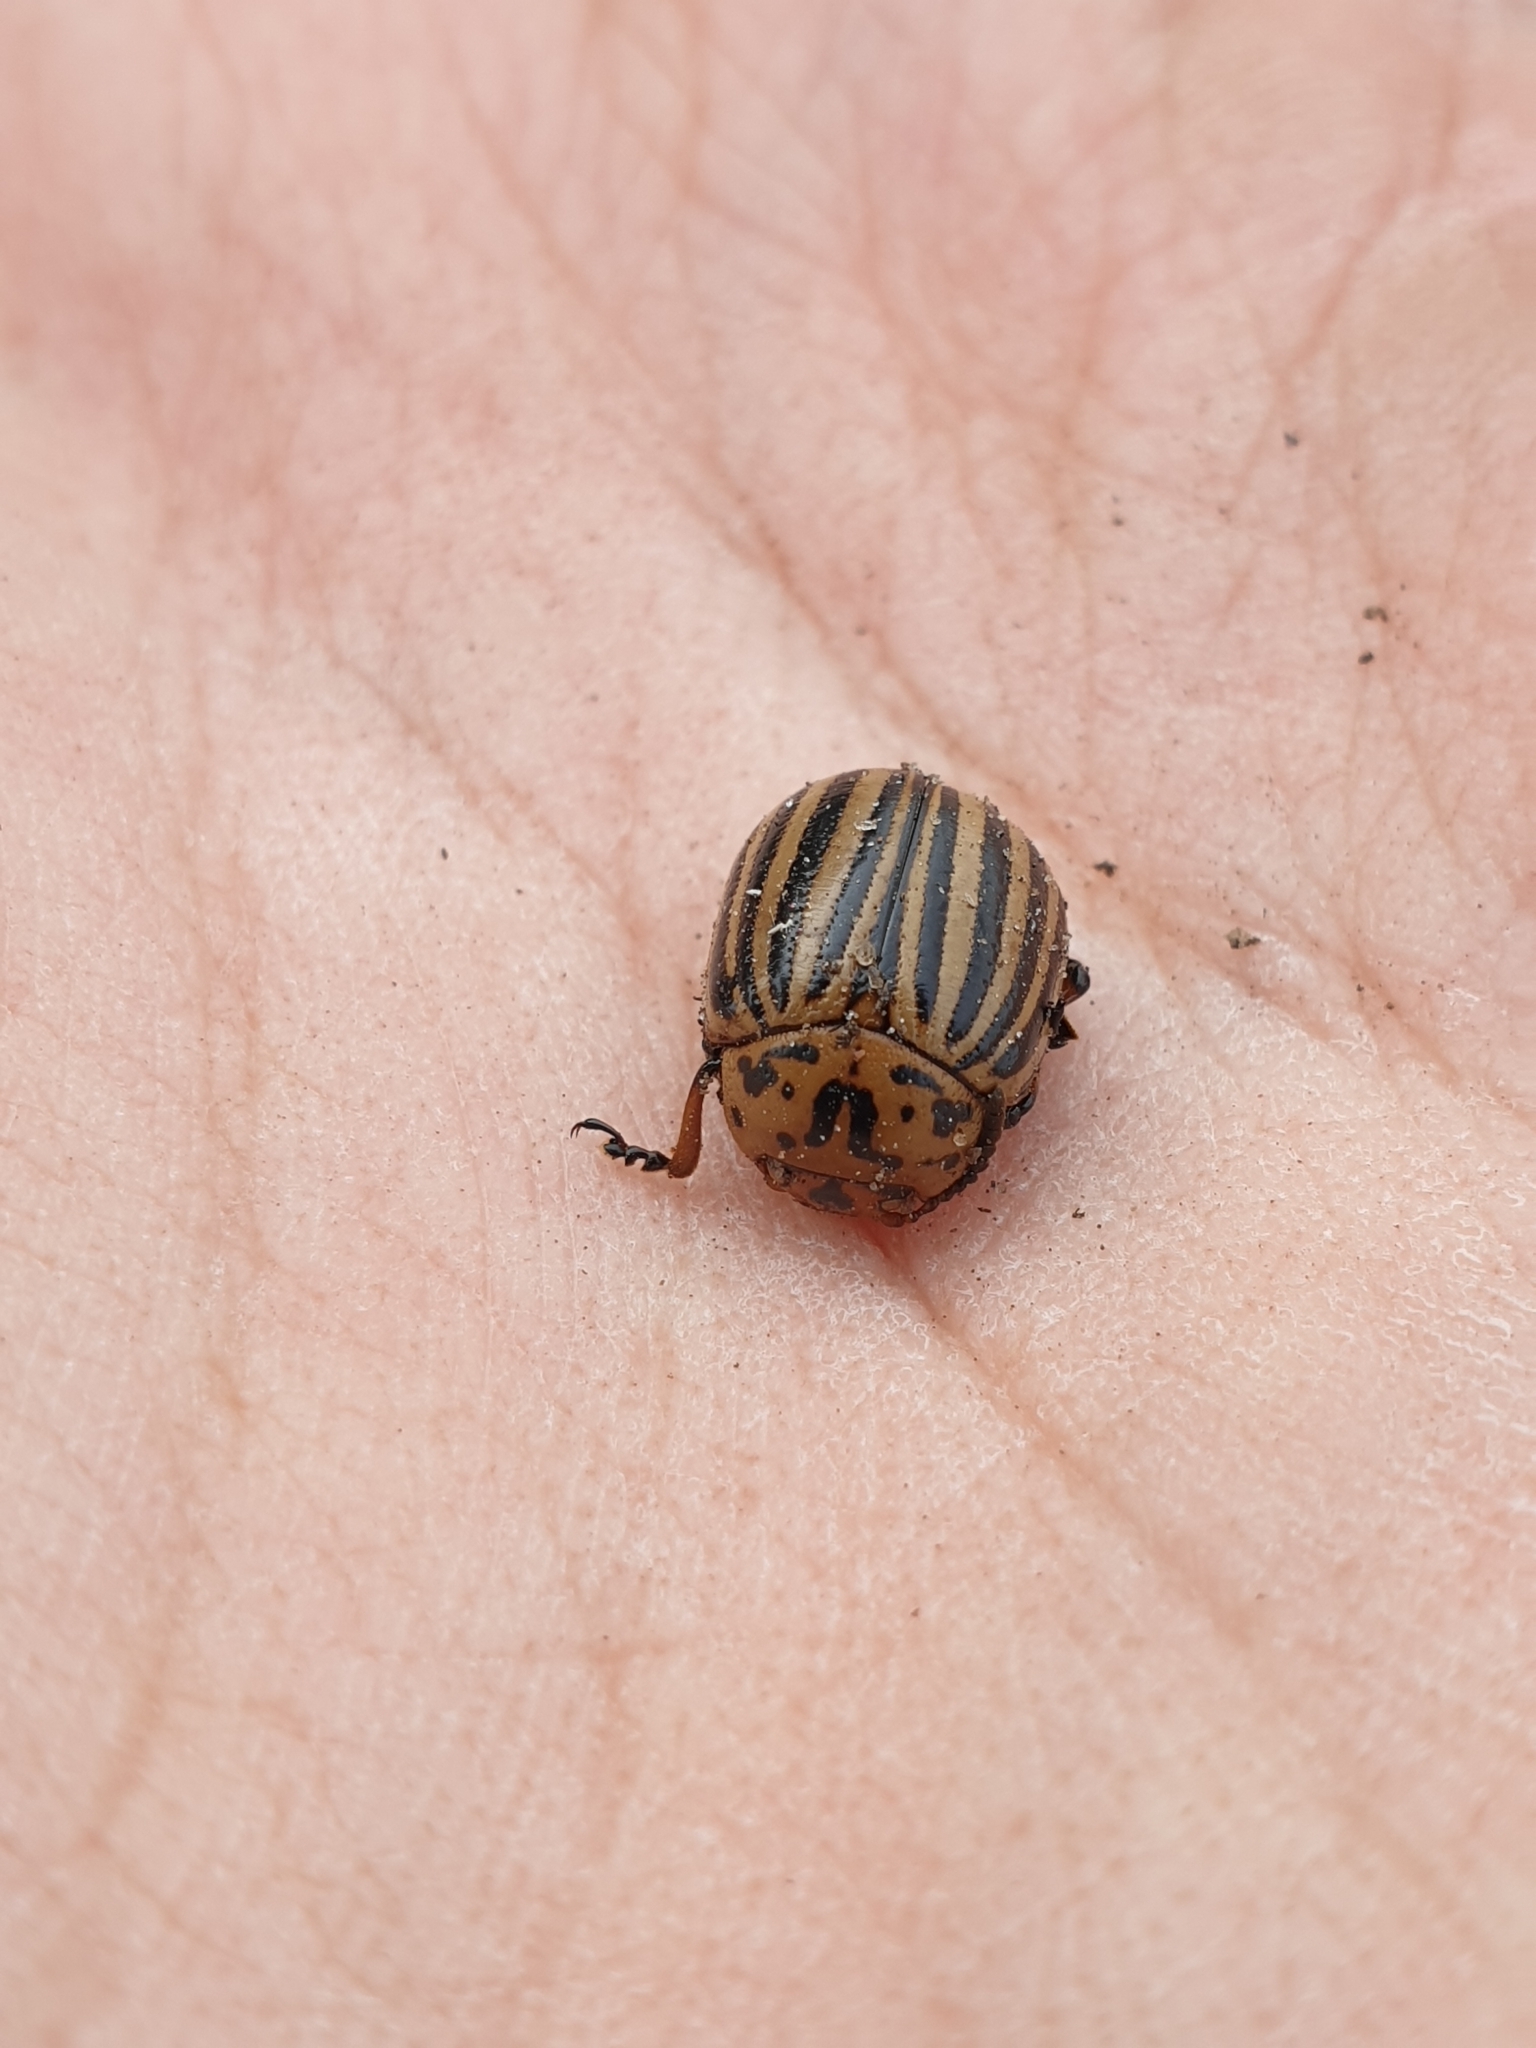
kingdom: Animalia
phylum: Arthropoda
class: Insecta
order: Coleoptera
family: Chrysomelidae
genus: Leptinotarsa
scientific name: Leptinotarsa decemlineata
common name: Colorado potato beetle
